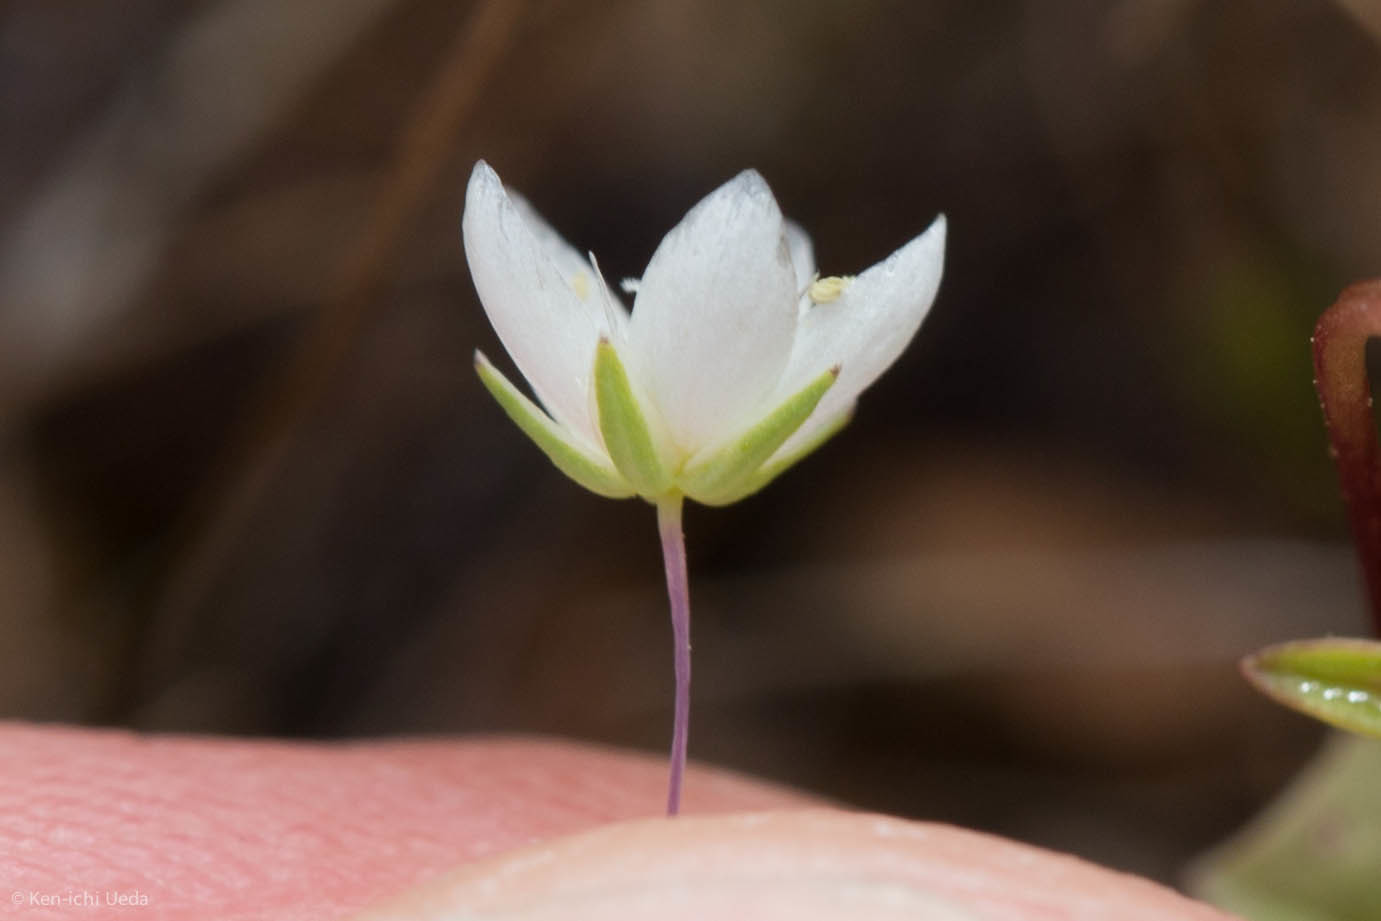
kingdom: Plantae
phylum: Tracheophyta
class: Magnoliopsida
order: Caryophyllales
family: Caryophyllaceae
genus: Sabulina
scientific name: Sabulina californica
